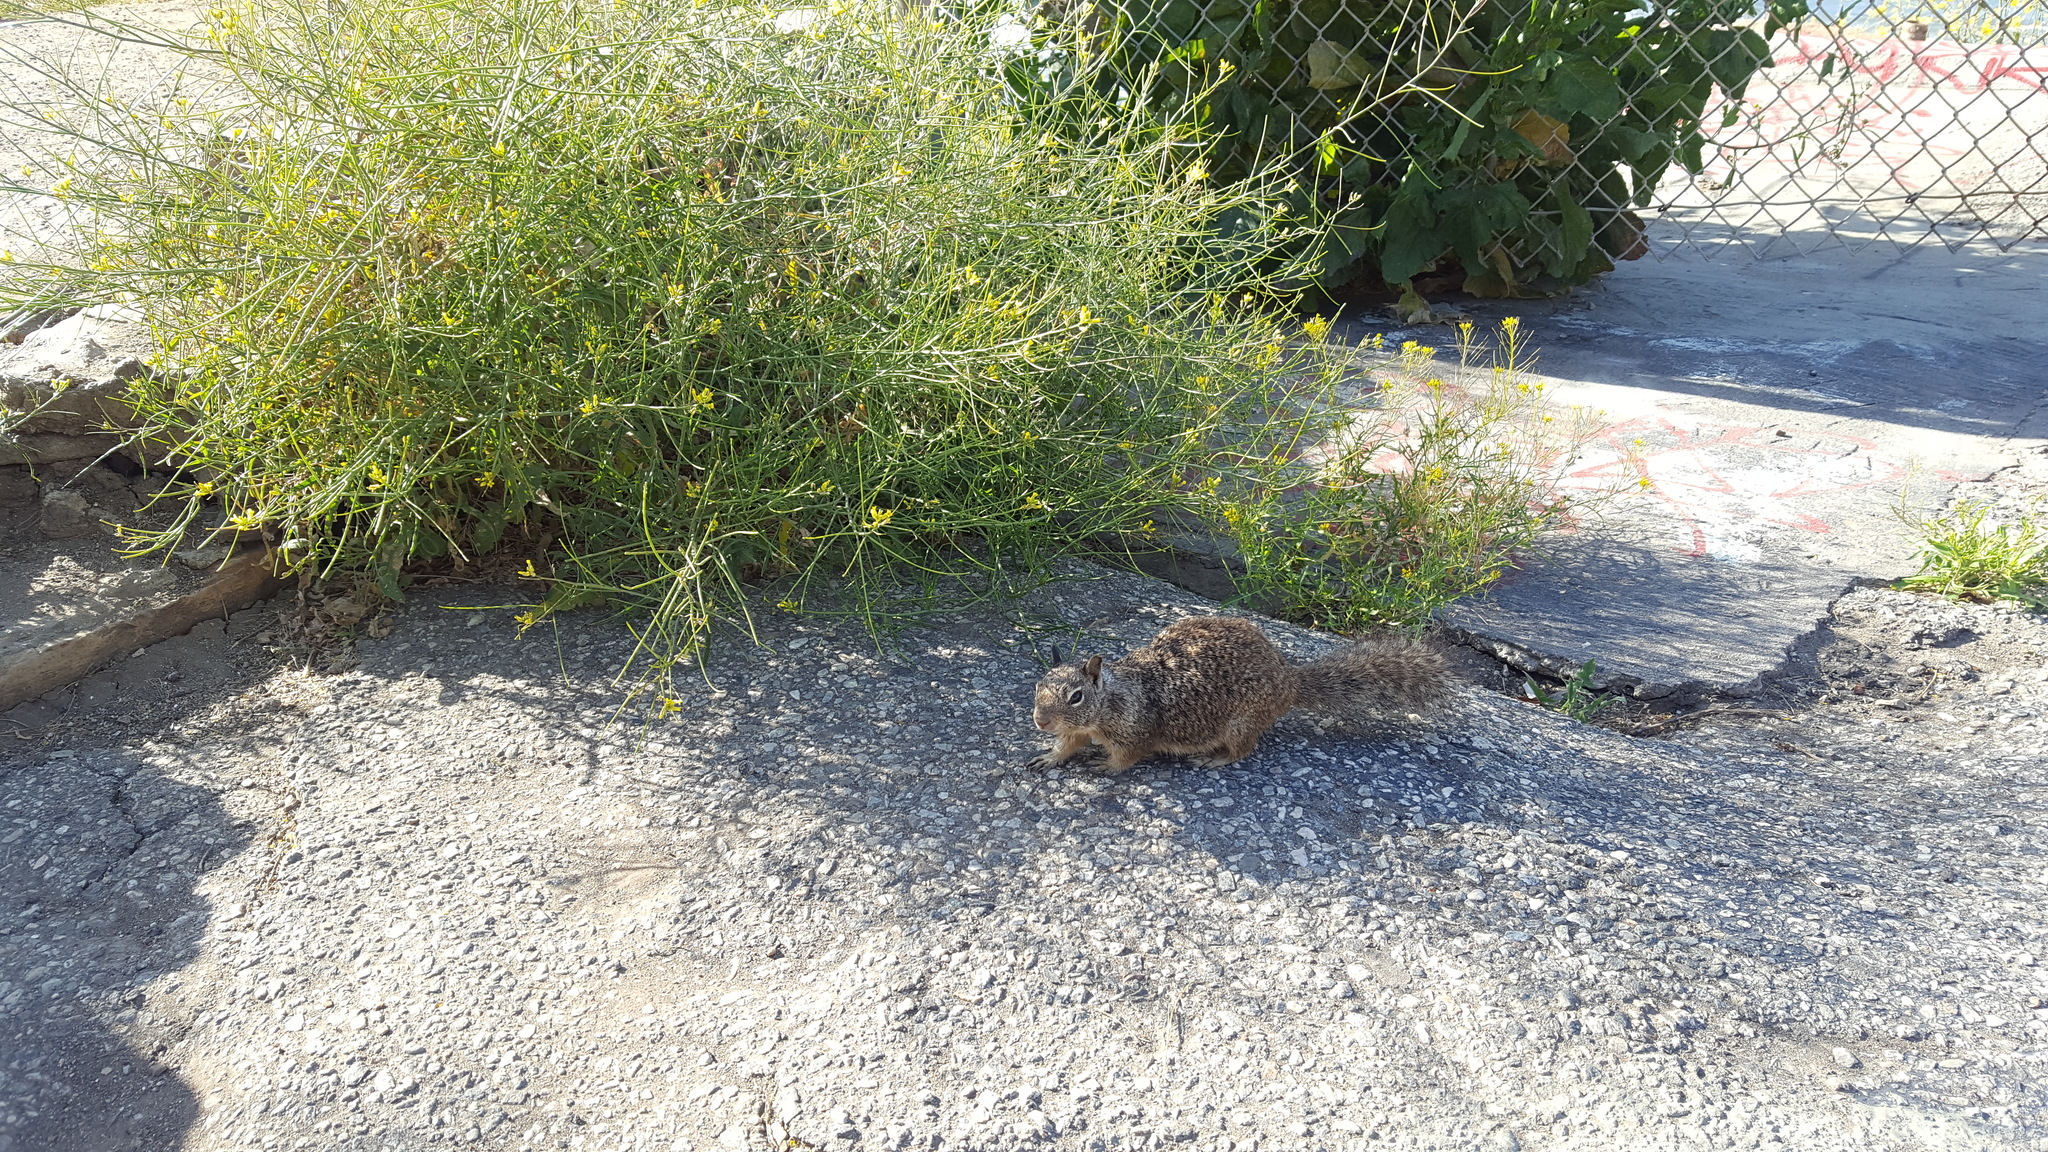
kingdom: Animalia
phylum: Chordata
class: Mammalia
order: Rodentia
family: Sciuridae
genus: Otospermophilus
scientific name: Otospermophilus beecheyi
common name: California ground squirrel
